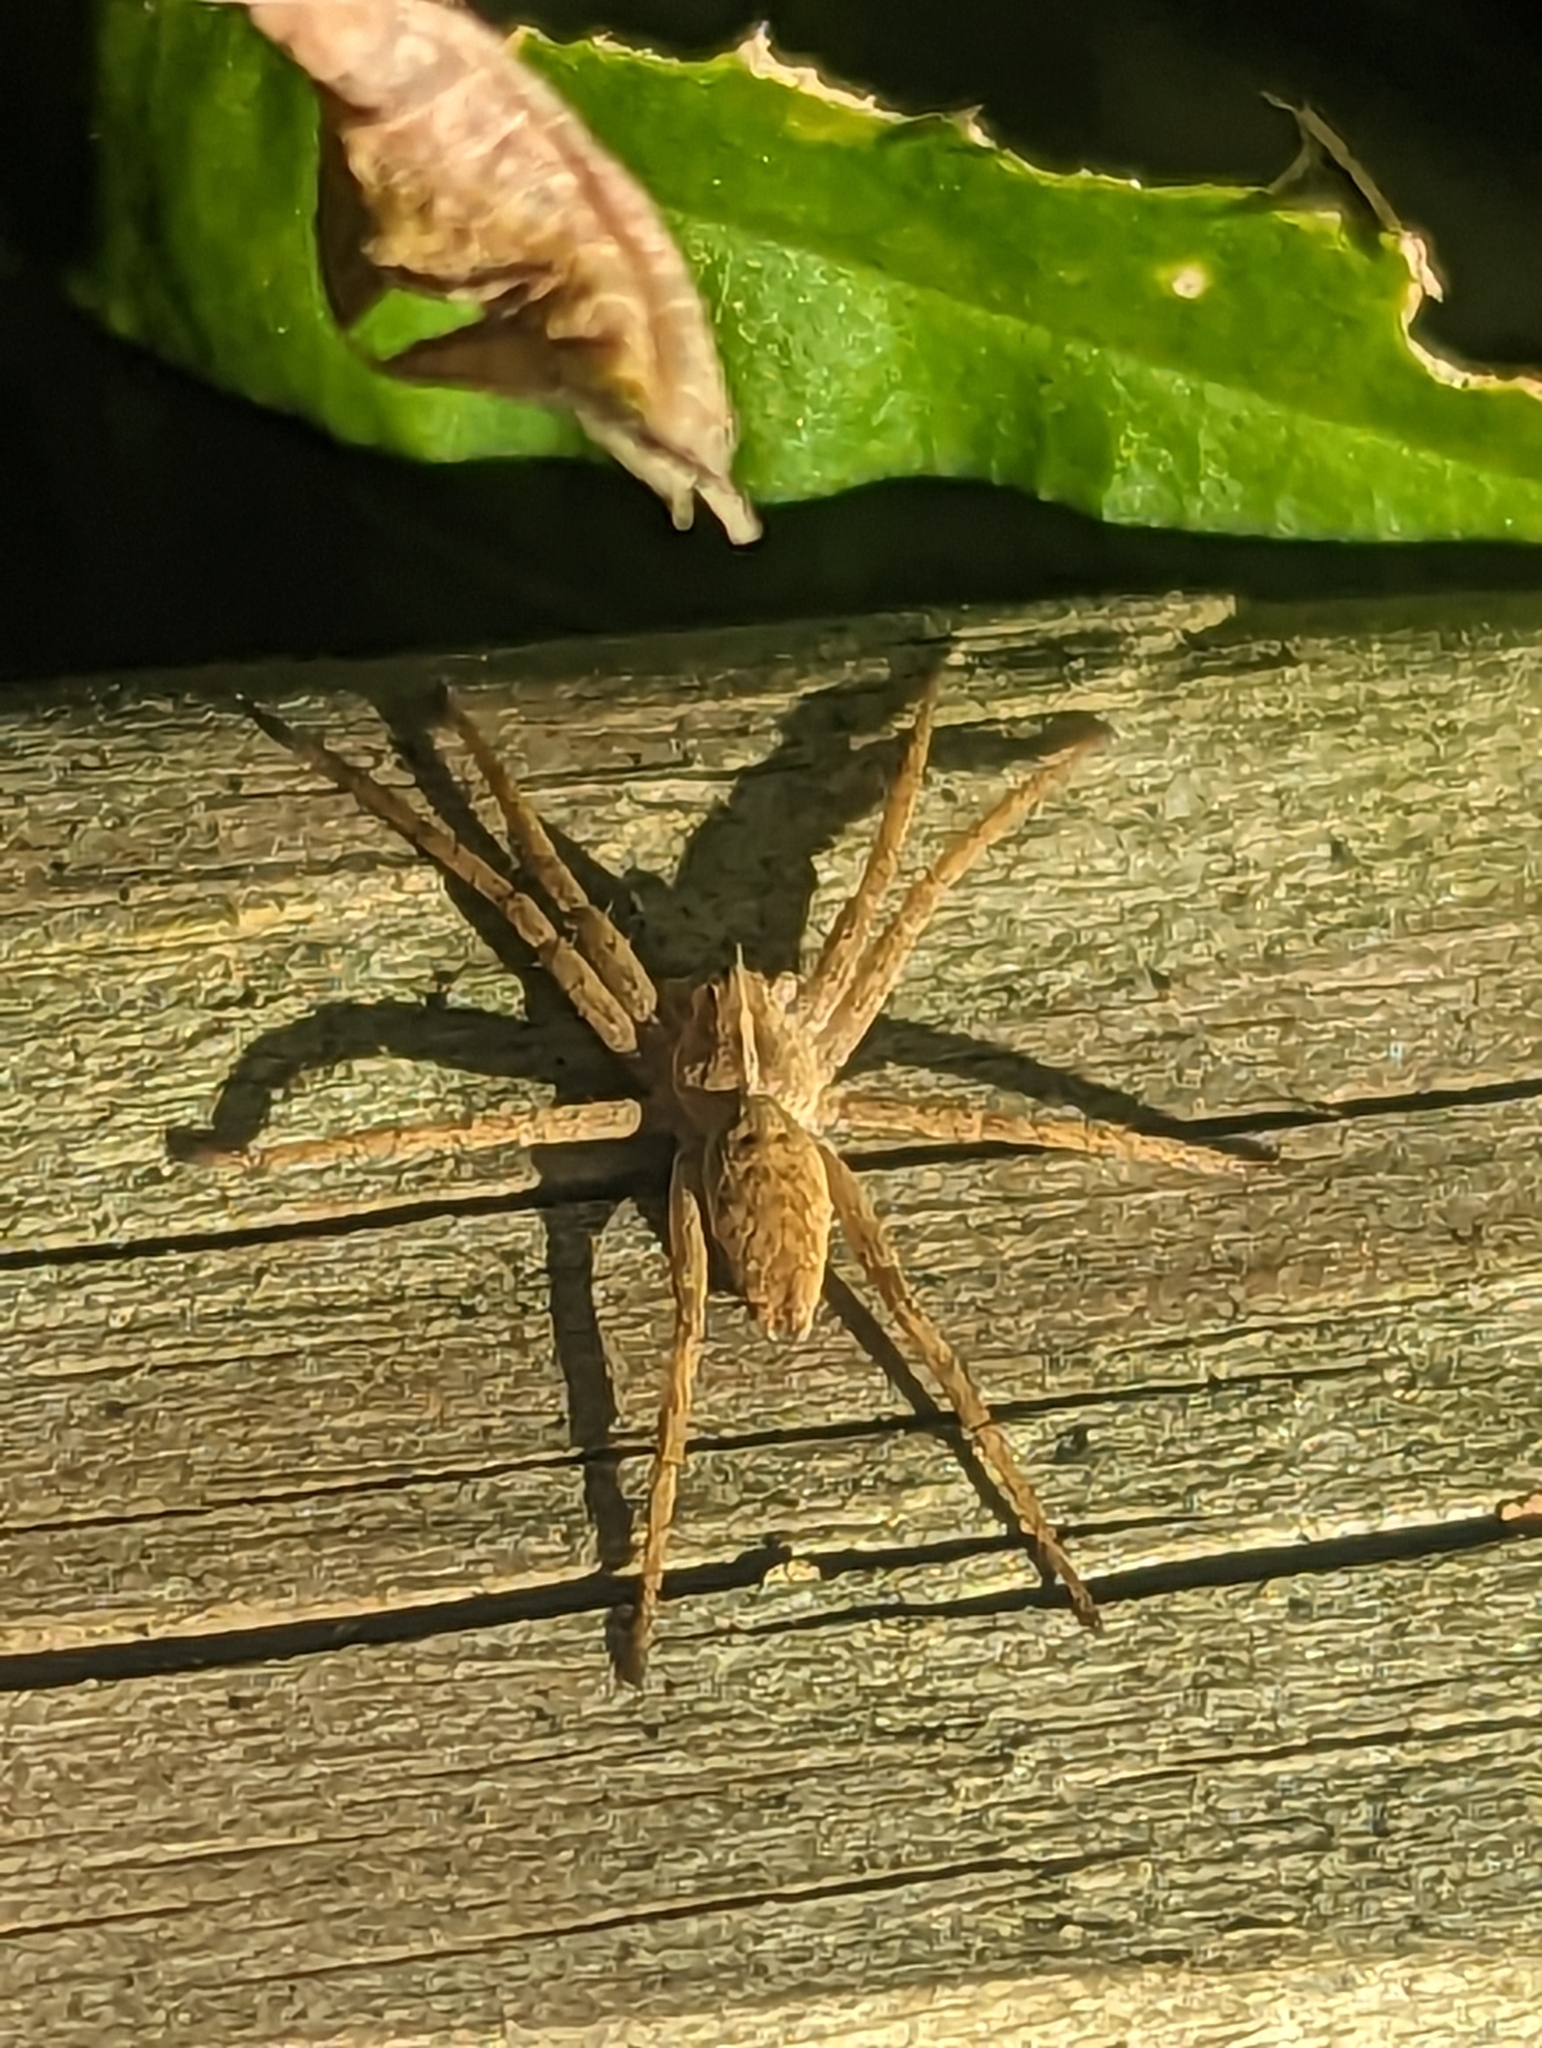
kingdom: Animalia
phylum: Arthropoda
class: Arachnida
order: Araneae
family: Pisauridae
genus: Pisaura
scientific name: Pisaura mirabilis
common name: Tent spider
